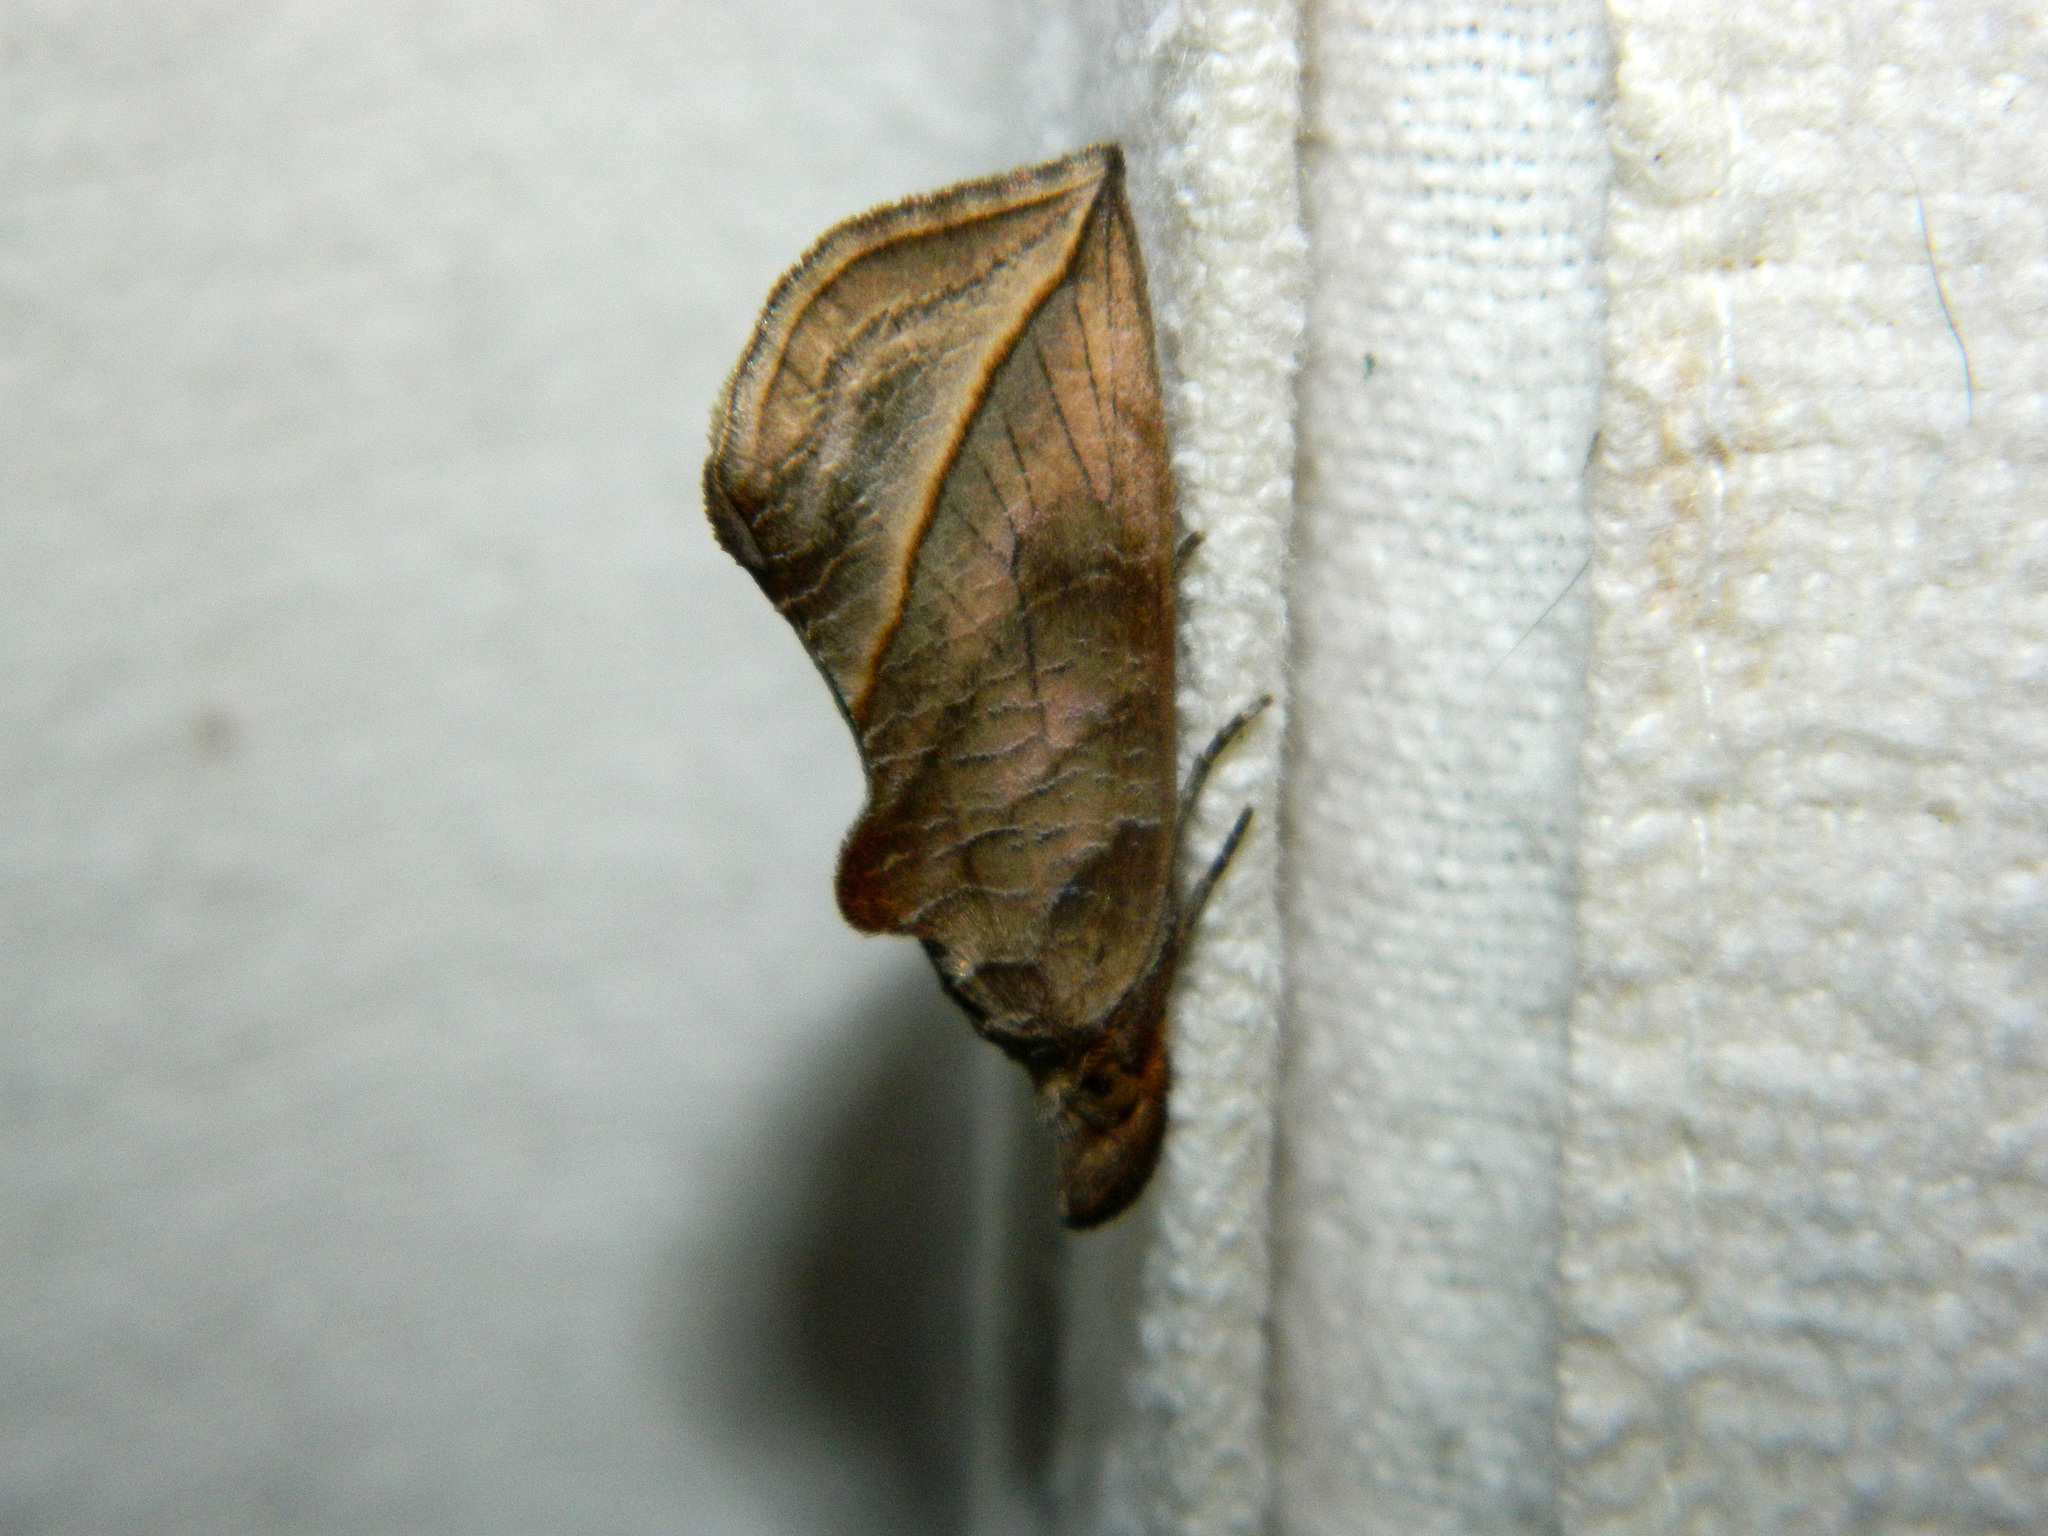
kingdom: Animalia
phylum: Arthropoda
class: Insecta
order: Lepidoptera
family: Erebidae
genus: Calyptra
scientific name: Calyptra canadensis
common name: Canadian owlet
